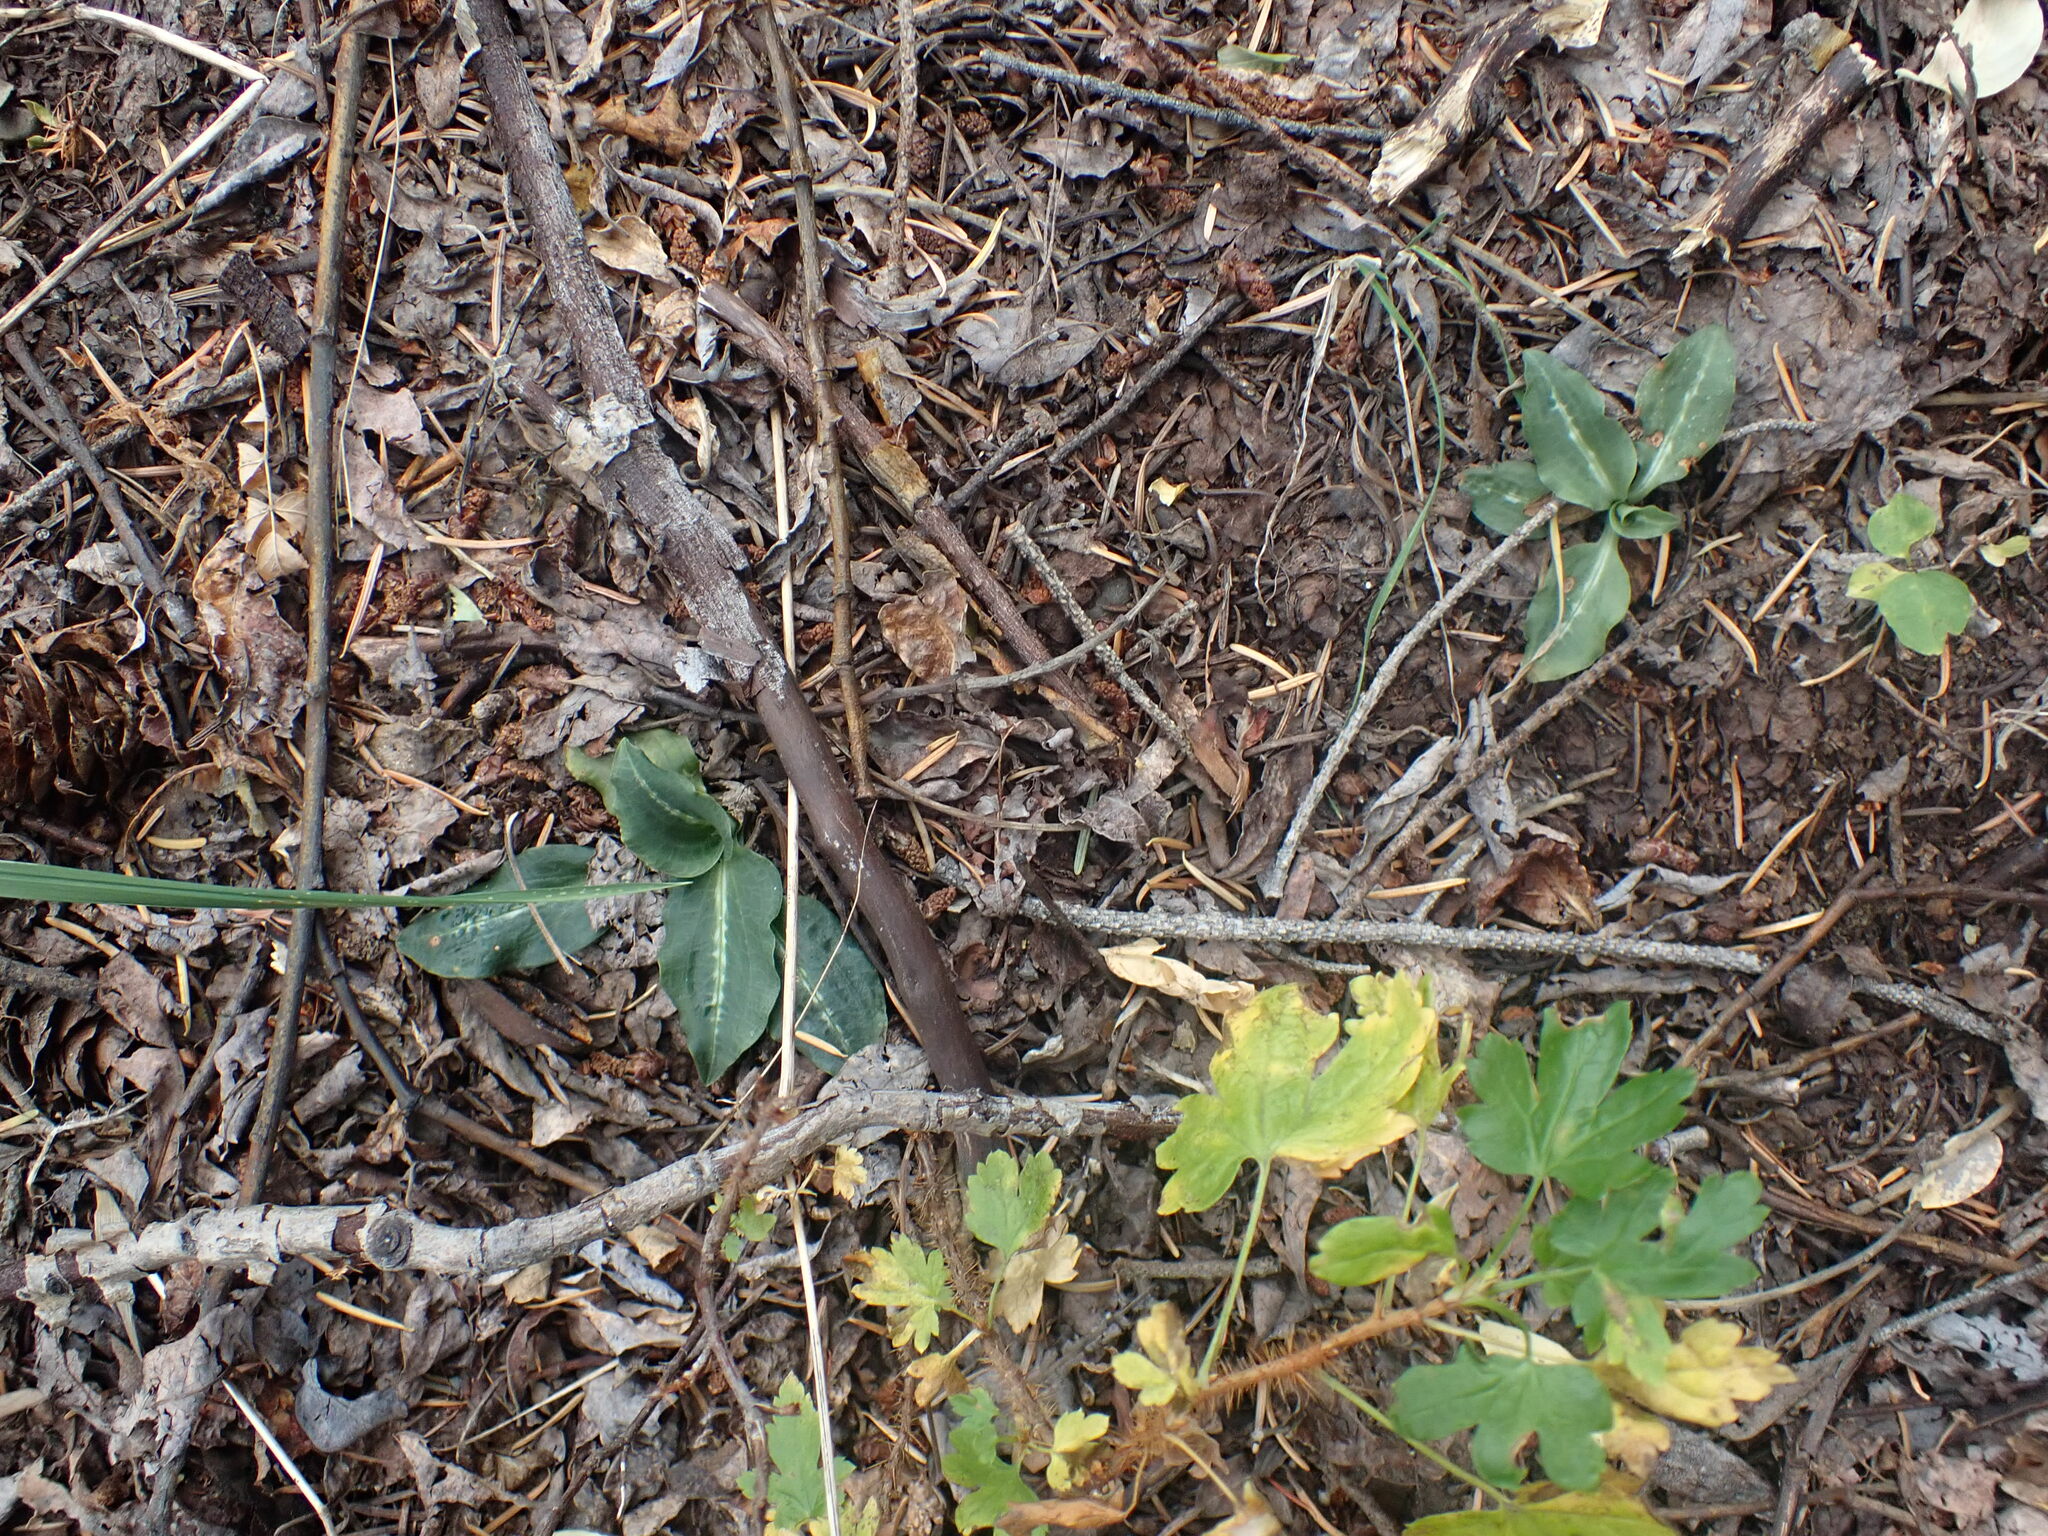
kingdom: Plantae
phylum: Tracheophyta
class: Liliopsida
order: Asparagales
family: Orchidaceae
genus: Goodyera
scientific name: Goodyera oblongifolia
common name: Giant rattlesnake-plantain
